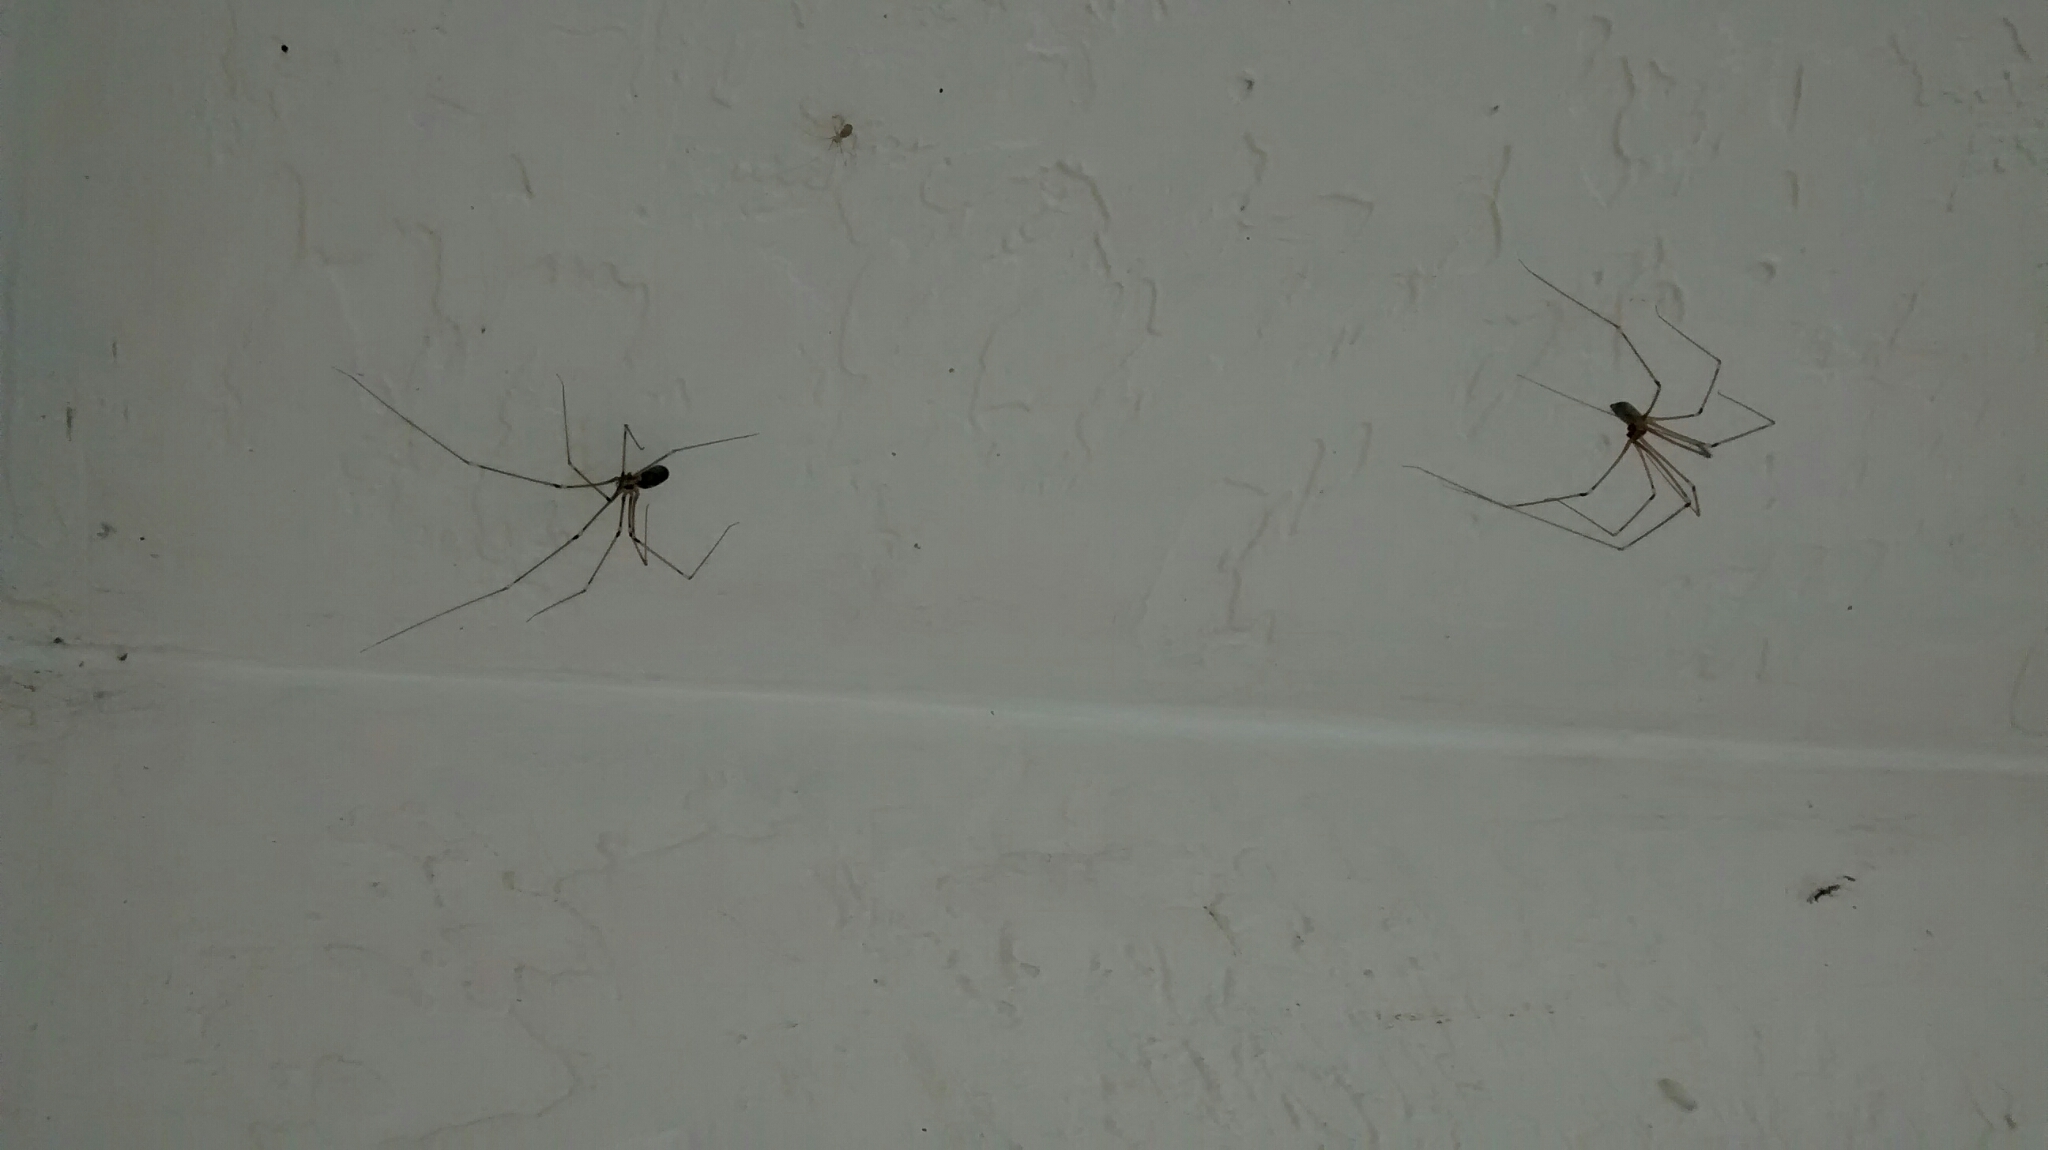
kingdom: Animalia
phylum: Arthropoda
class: Arachnida
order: Araneae
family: Pholcidae
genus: Pholcus
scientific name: Pholcus phalangioides
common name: Longbodied cellar spider
